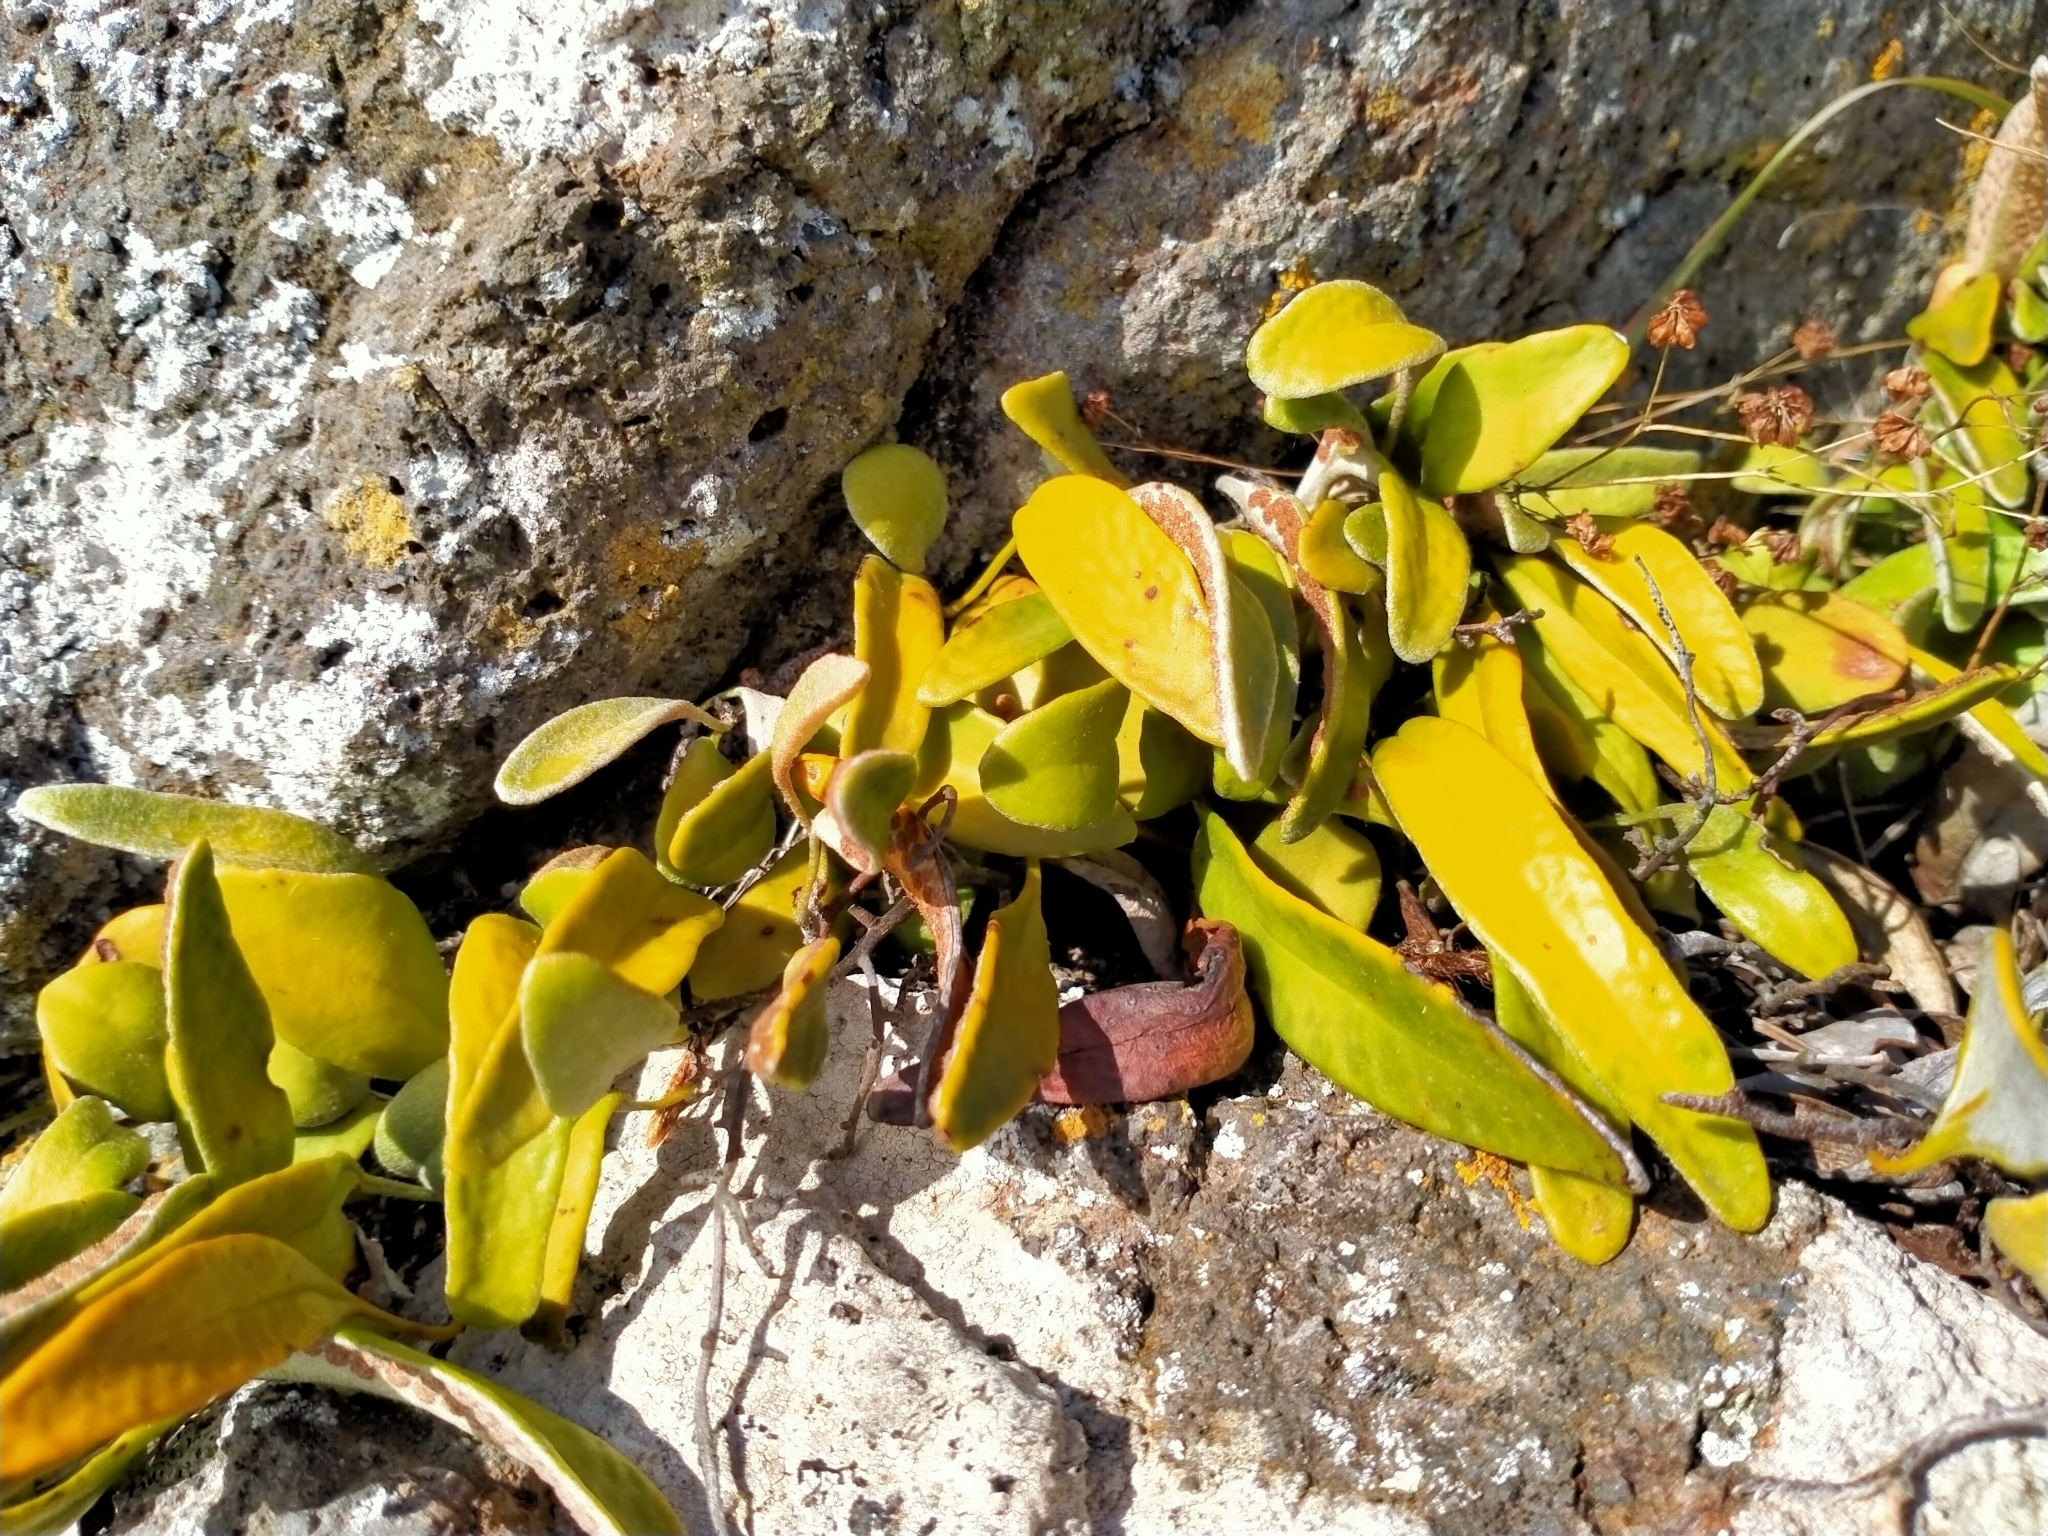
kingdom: Plantae
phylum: Tracheophyta
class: Polypodiopsida
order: Polypodiales
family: Polypodiaceae
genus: Pyrrosia
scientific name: Pyrrosia eleagnifolia
